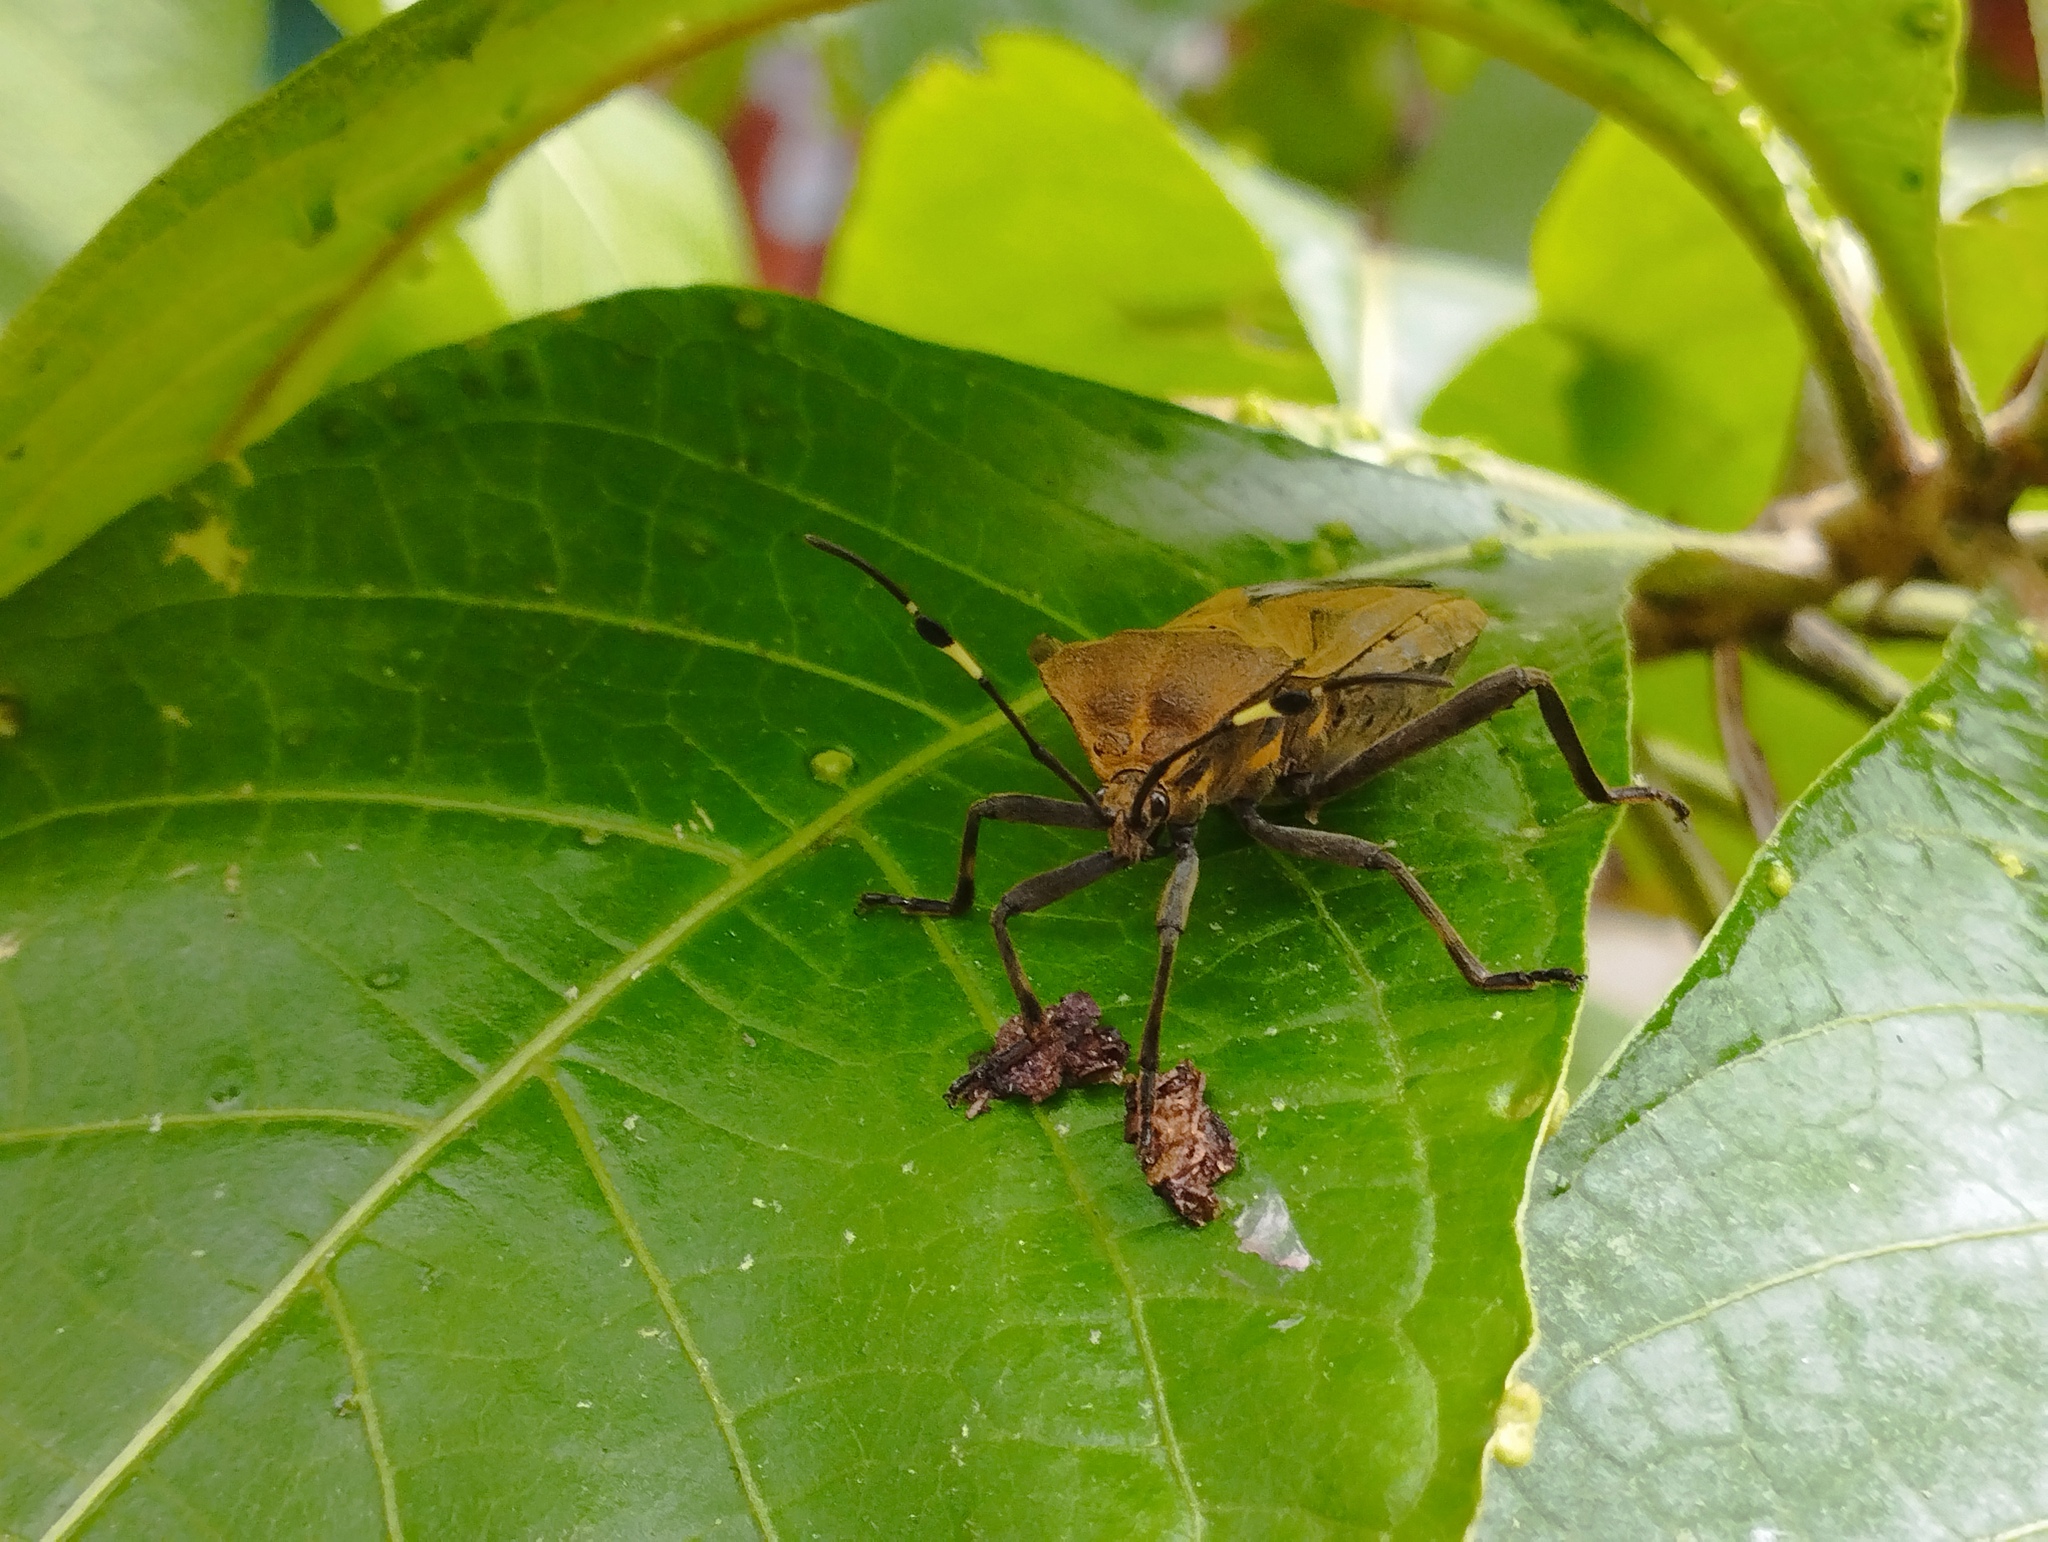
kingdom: Animalia
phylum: Arthropoda
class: Insecta
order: Hemiptera
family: Coreidae
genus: Pachylis
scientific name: Pachylis laticornis
